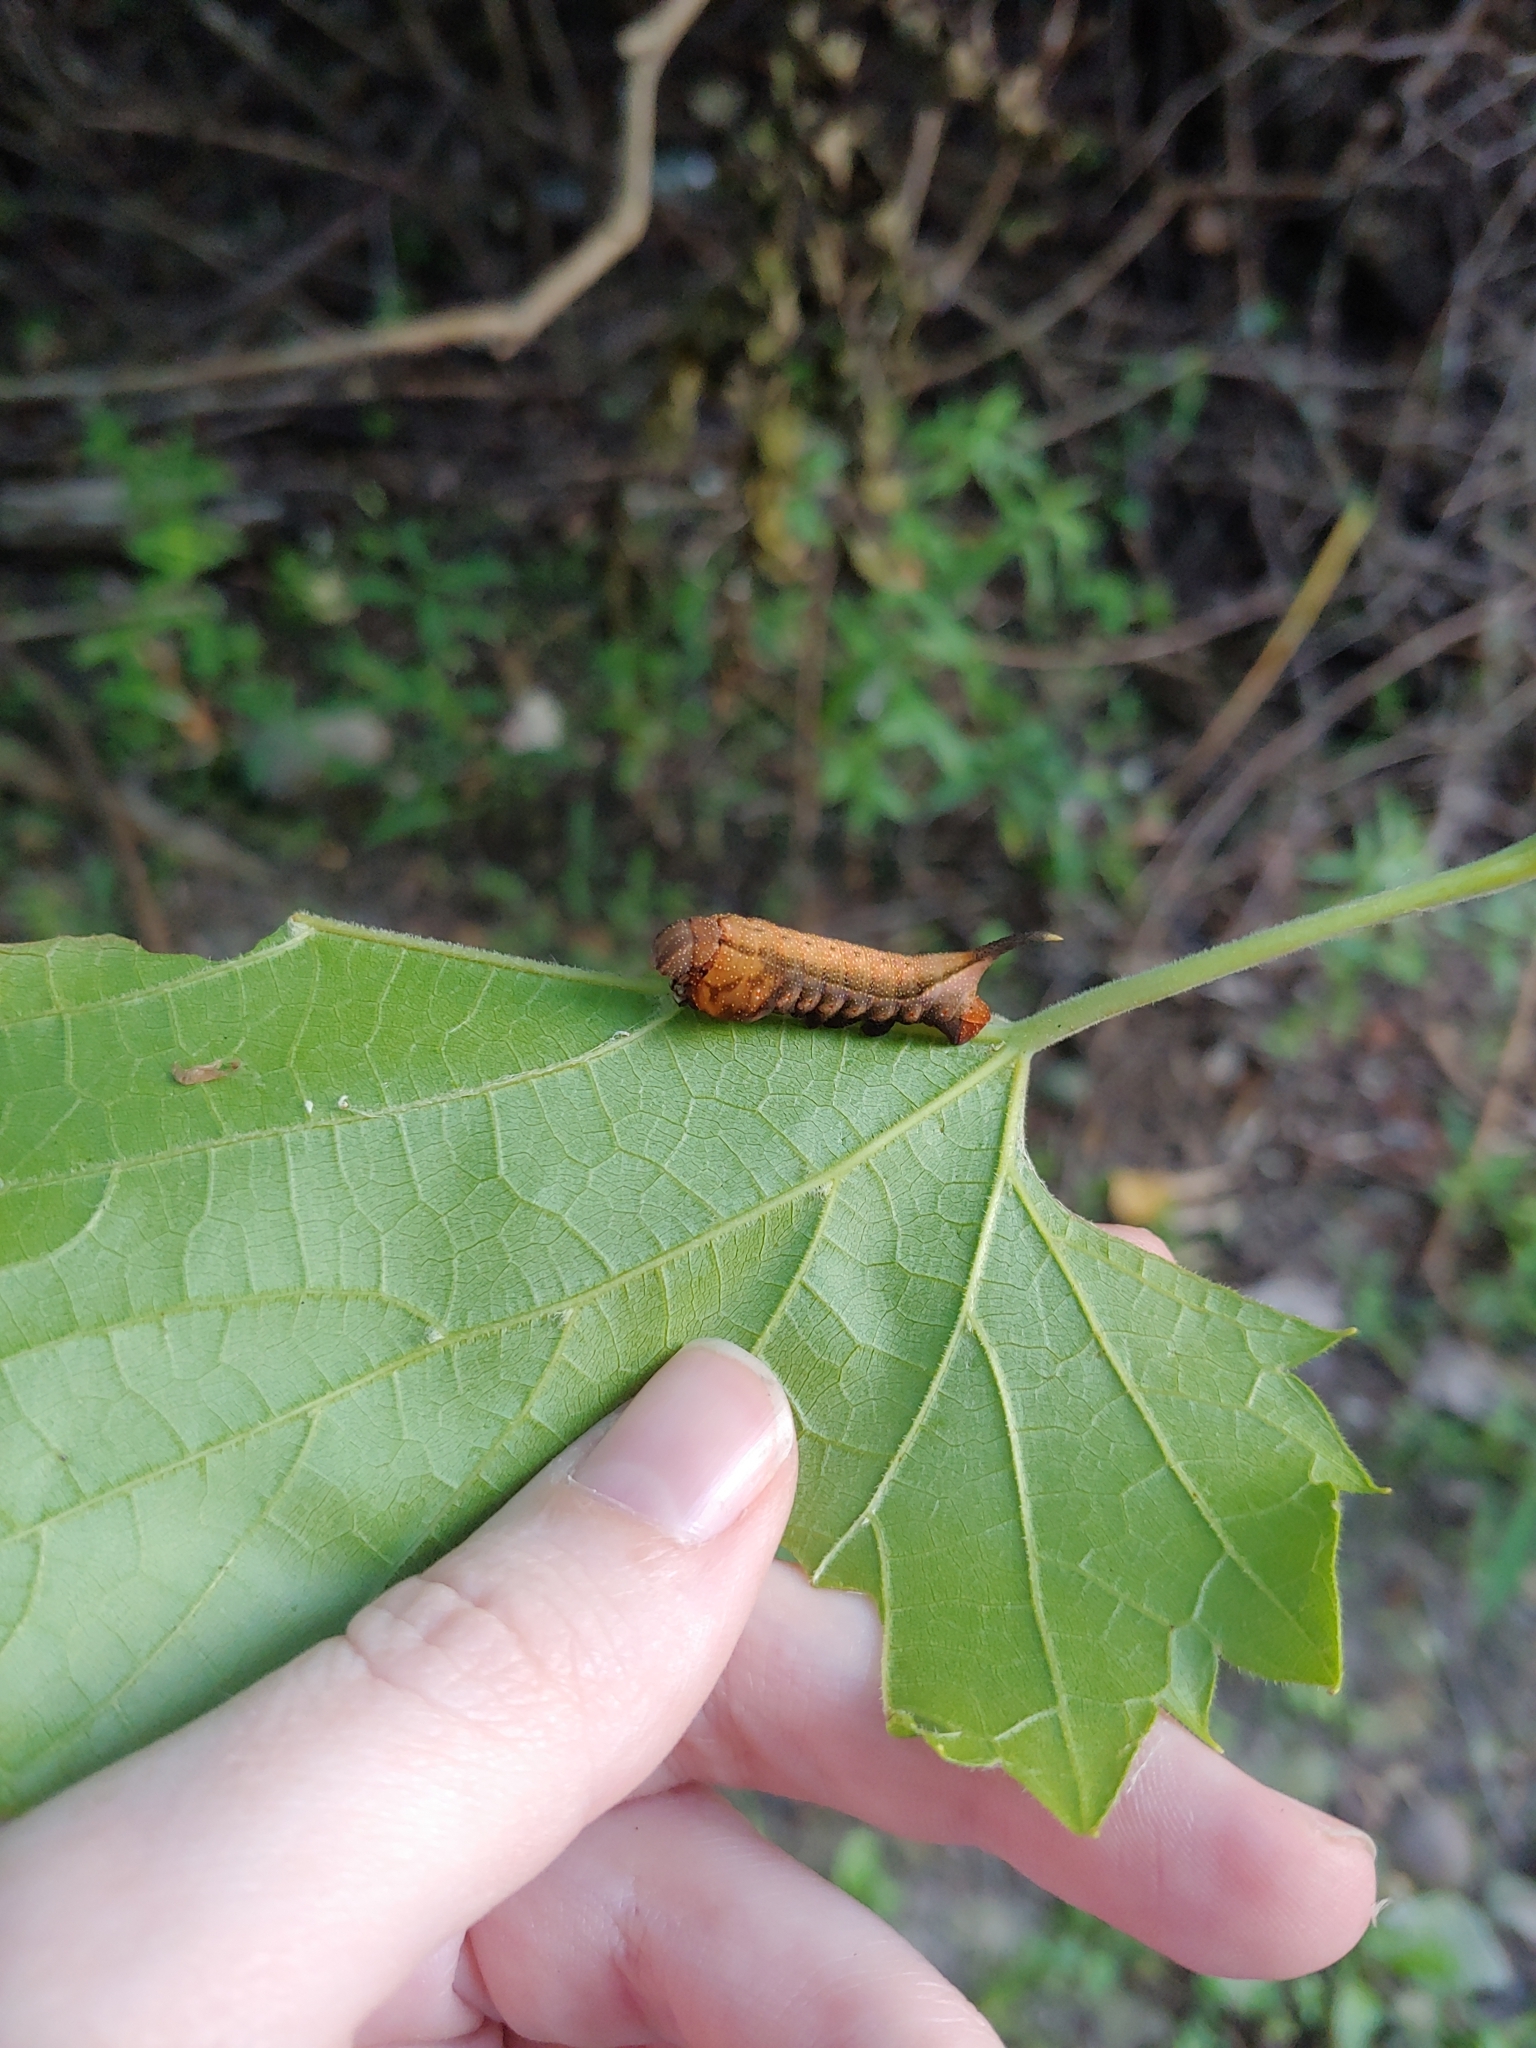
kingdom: Animalia
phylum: Arthropoda
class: Insecta
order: Lepidoptera
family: Sphingidae
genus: Darapsa
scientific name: Darapsa myron
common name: Hog sphinx
